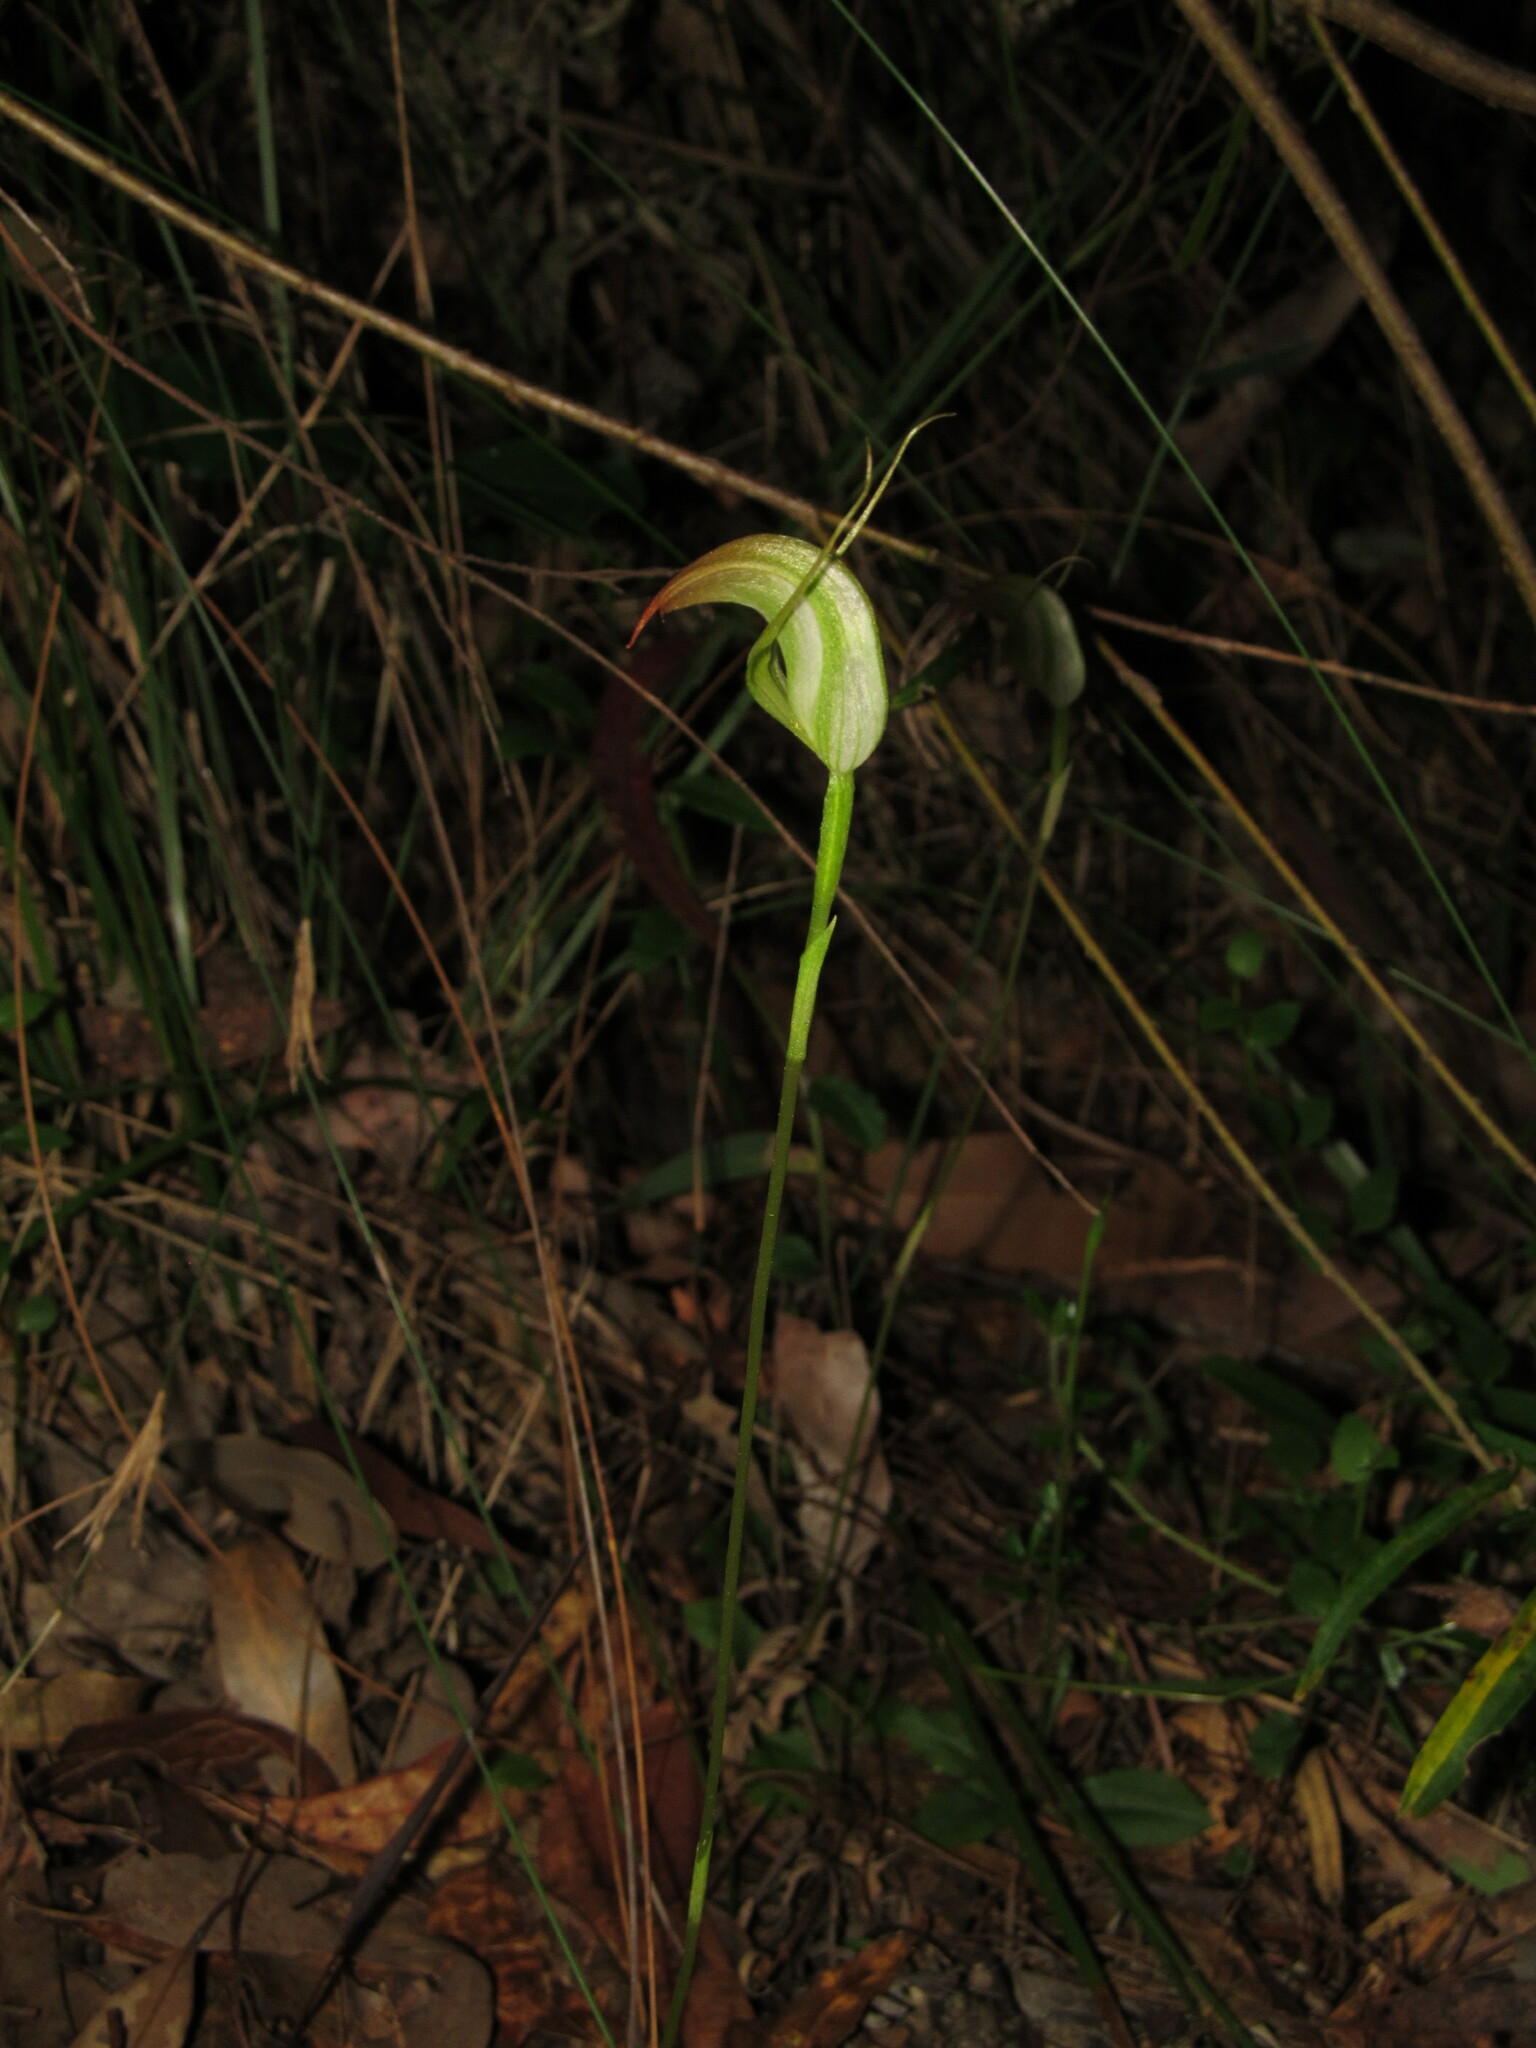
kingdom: Plantae
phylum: Tracheophyta
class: Liliopsida
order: Asparagales
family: Orchidaceae
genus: Pterostylis
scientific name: Pterostylis acuminata
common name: Pointed greenhood
